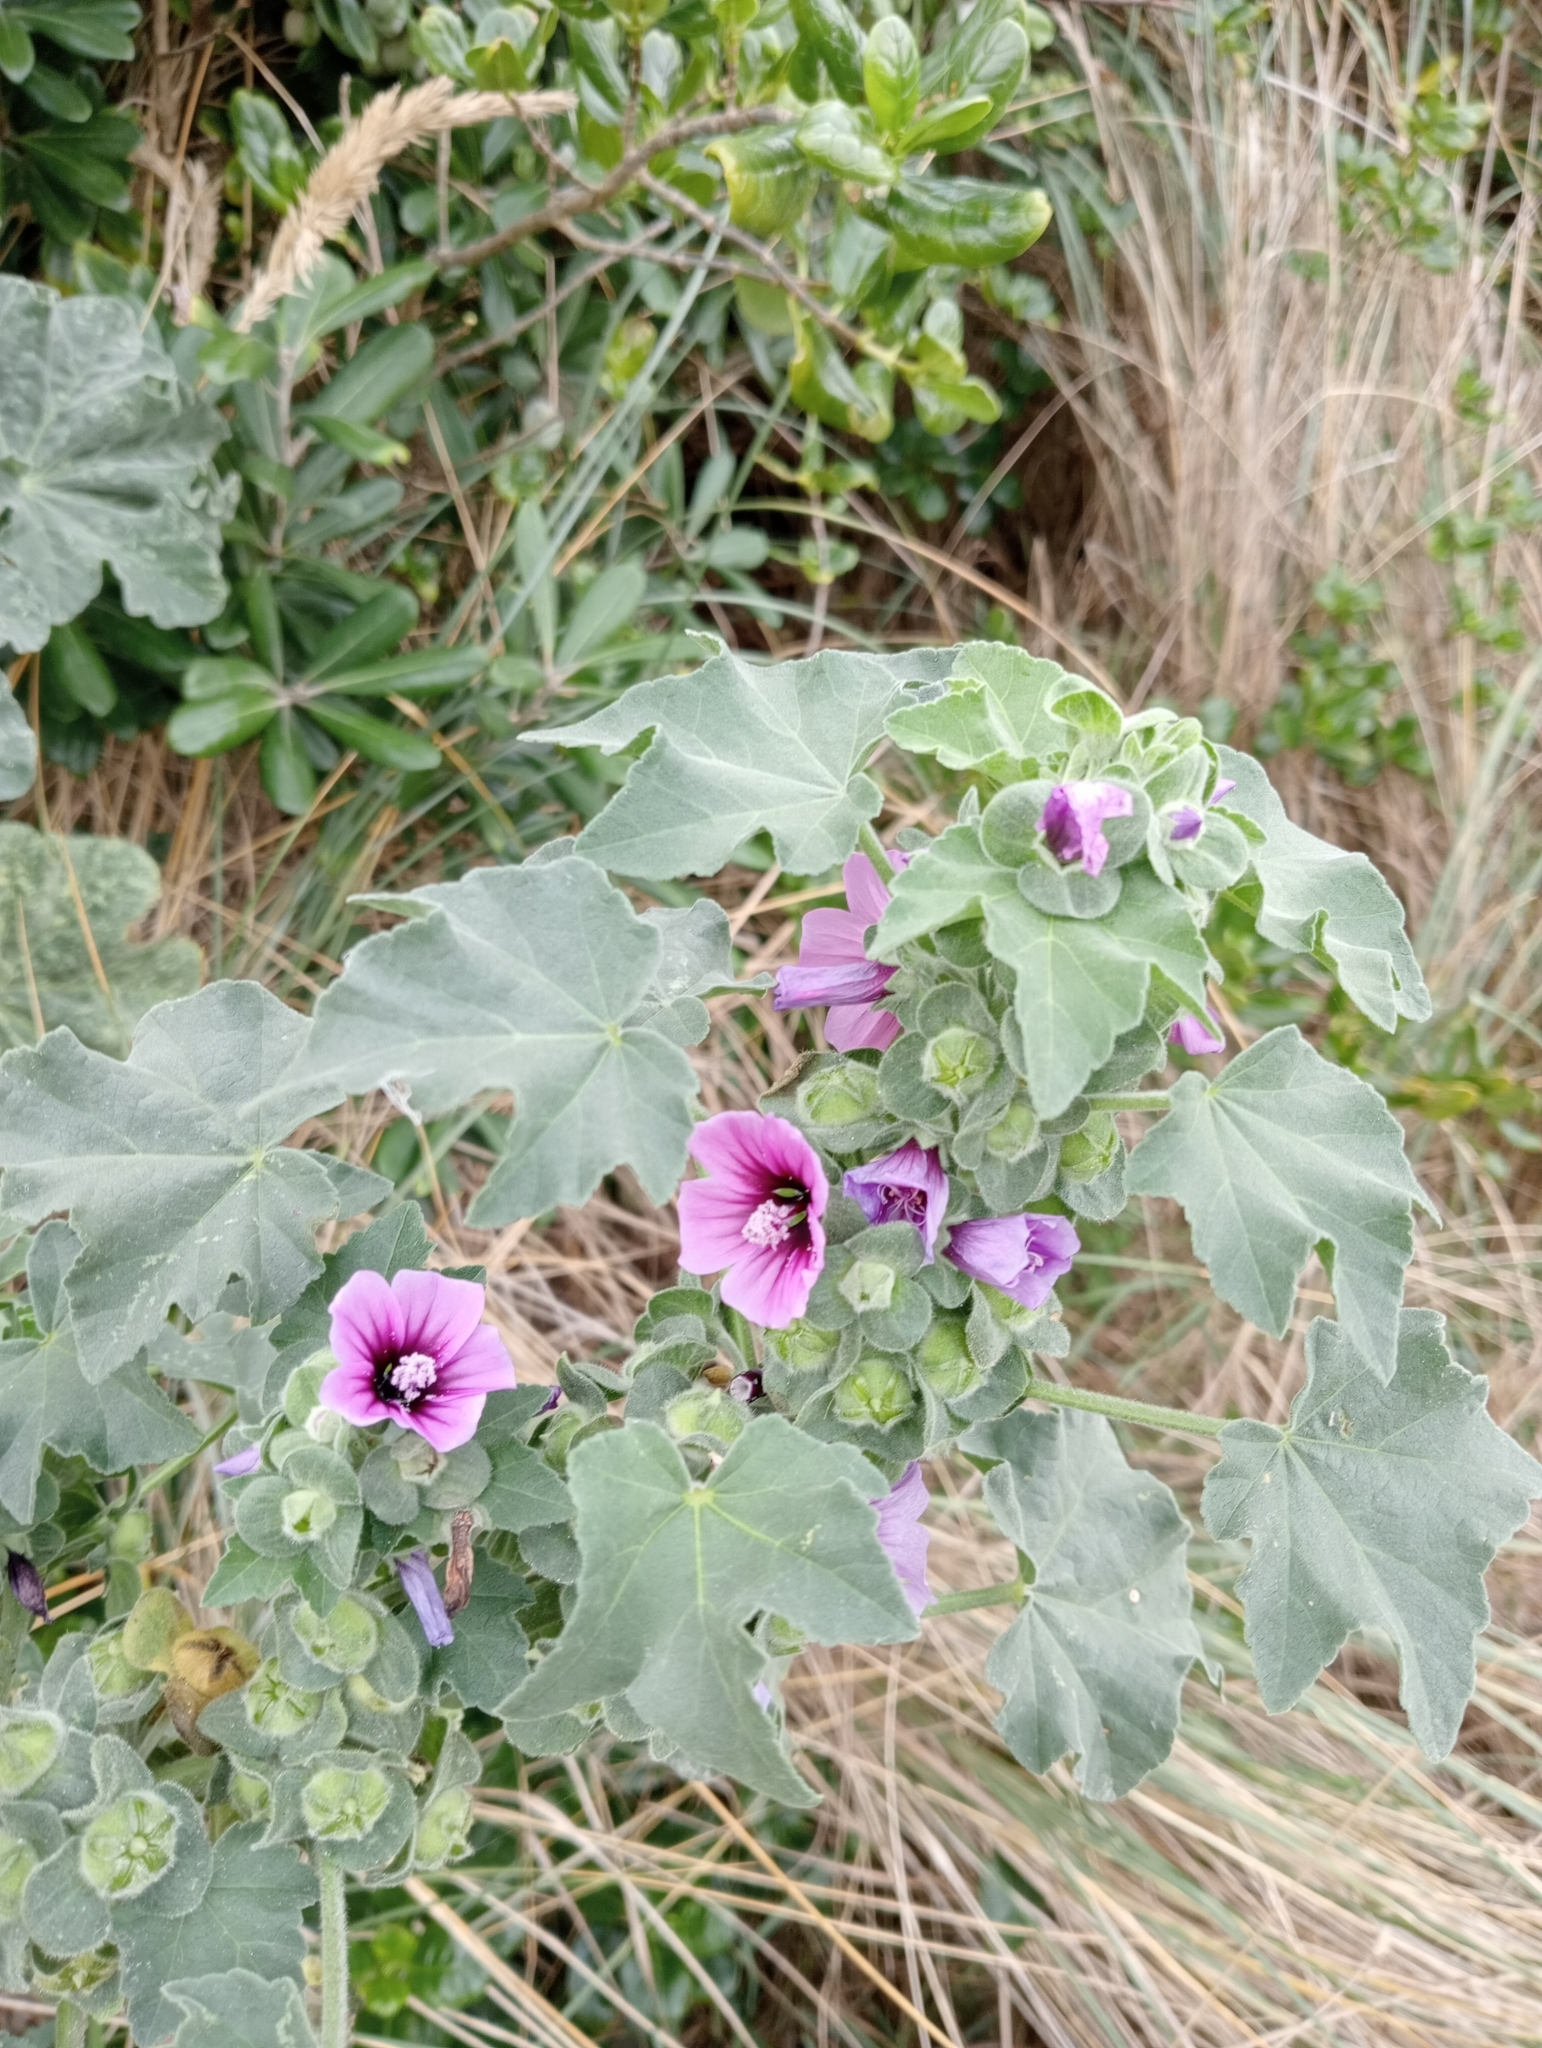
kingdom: Plantae
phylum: Tracheophyta
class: Magnoliopsida
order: Malvales
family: Malvaceae
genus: Malva
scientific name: Malva arborea
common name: Tree mallow
